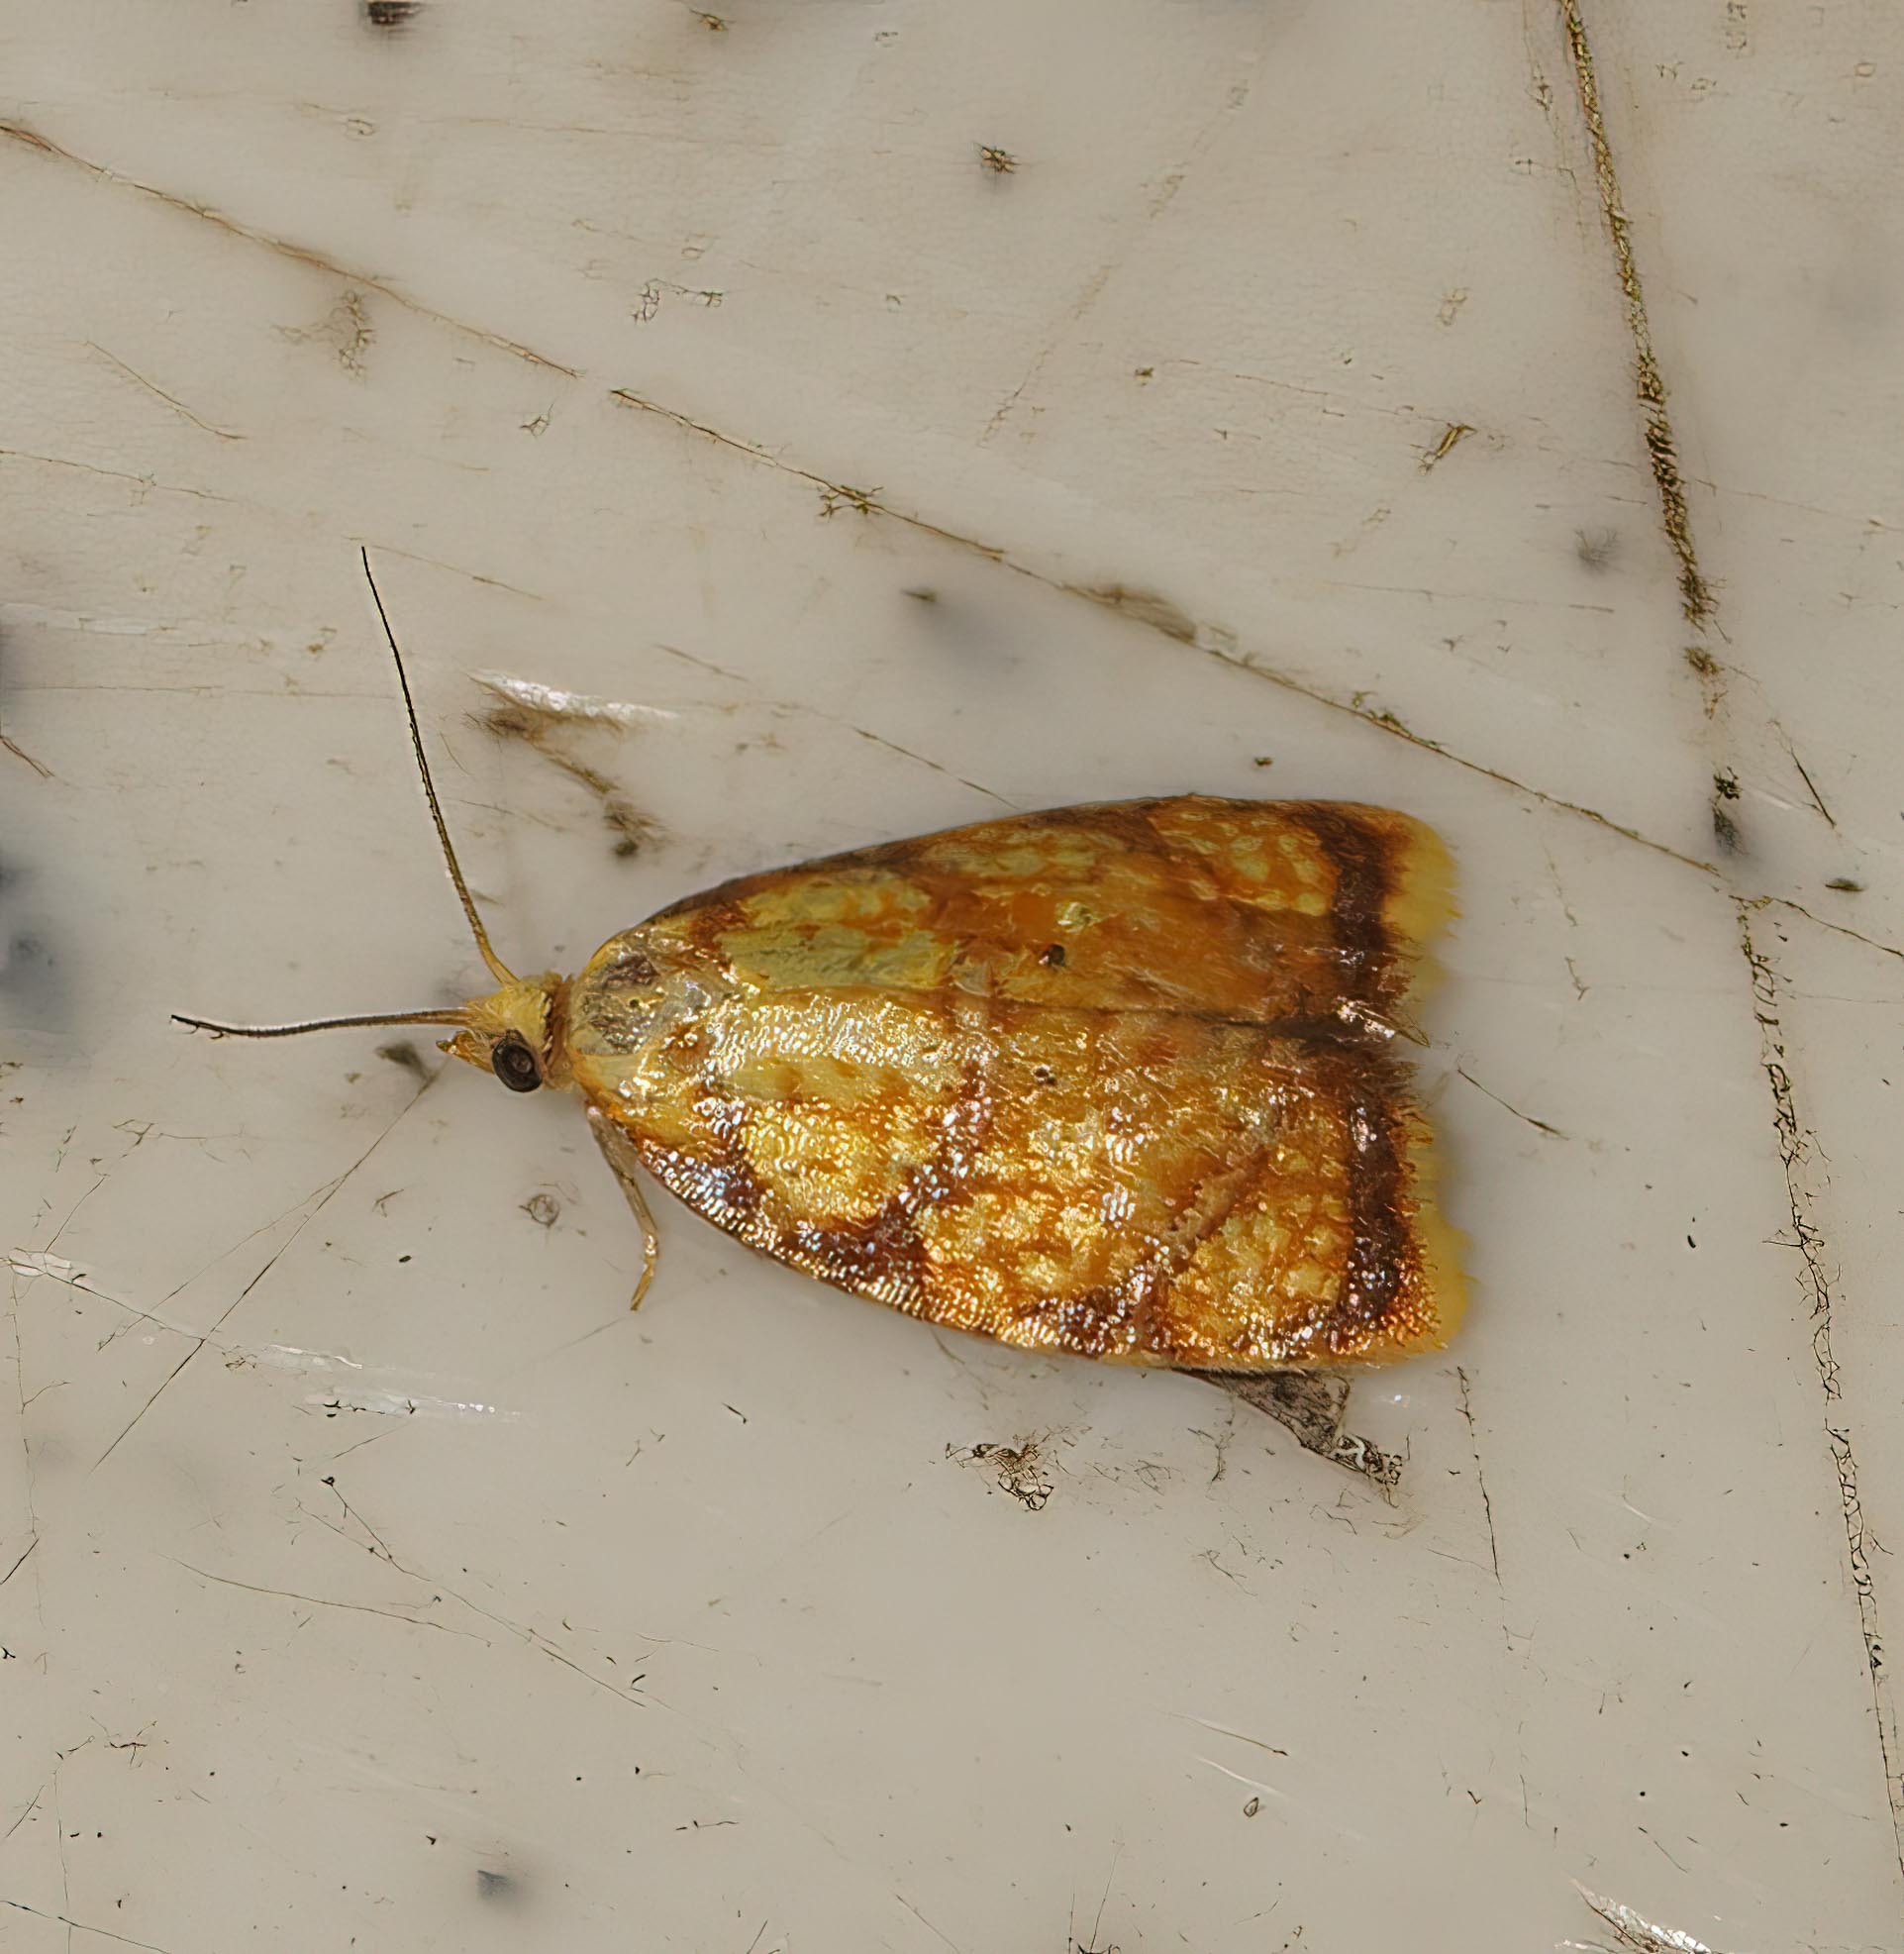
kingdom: Animalia
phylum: Arthropoda
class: Insecta
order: Lepidoptera
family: Tortricidae
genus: Acleris
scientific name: Acleris bergmanniana
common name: Yellow rose button
